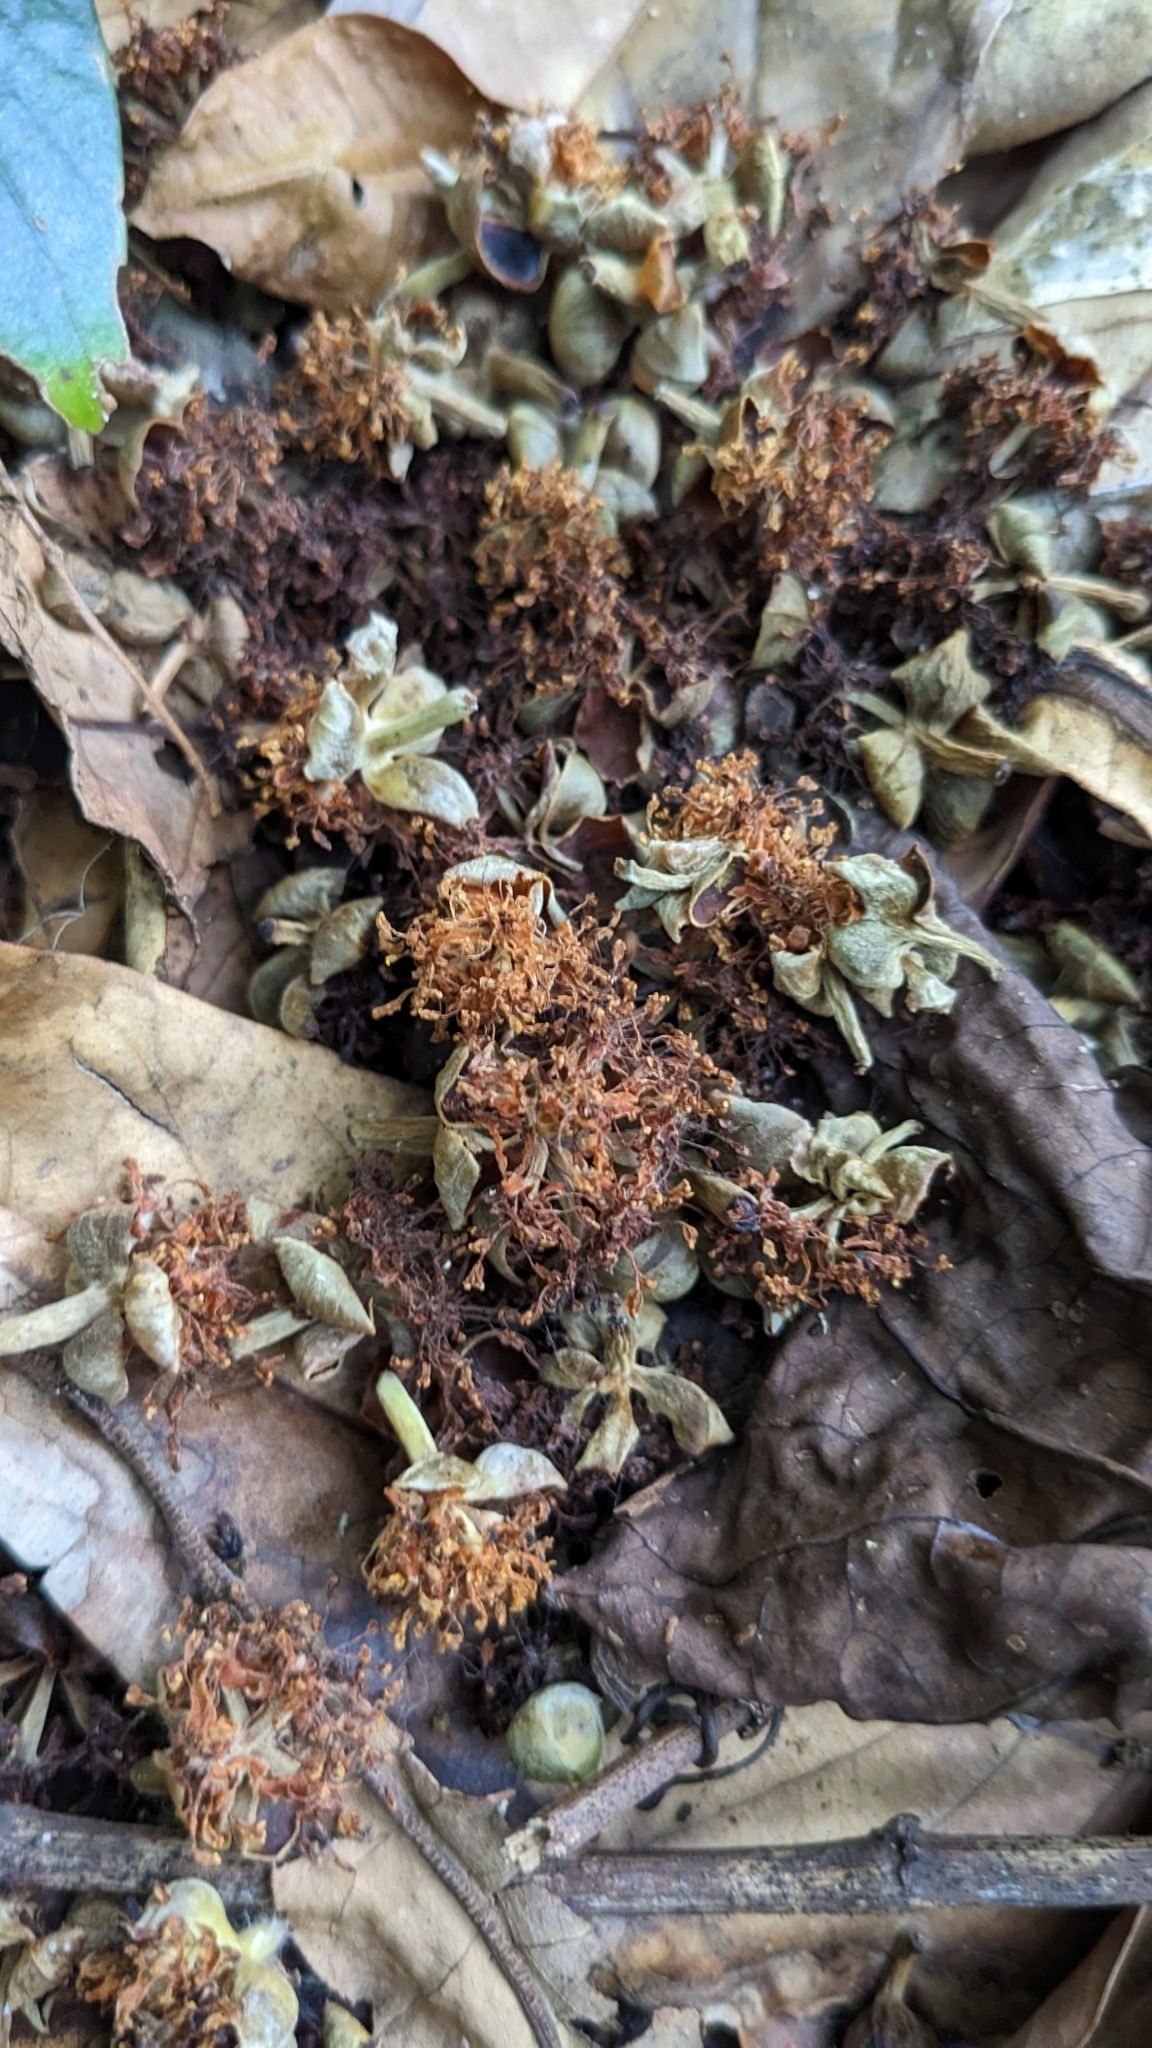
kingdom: Plantae
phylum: Tracheophyta
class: Magnoliopsida
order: Laurales
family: Lauraceae
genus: Litsea
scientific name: Litsea garciae
